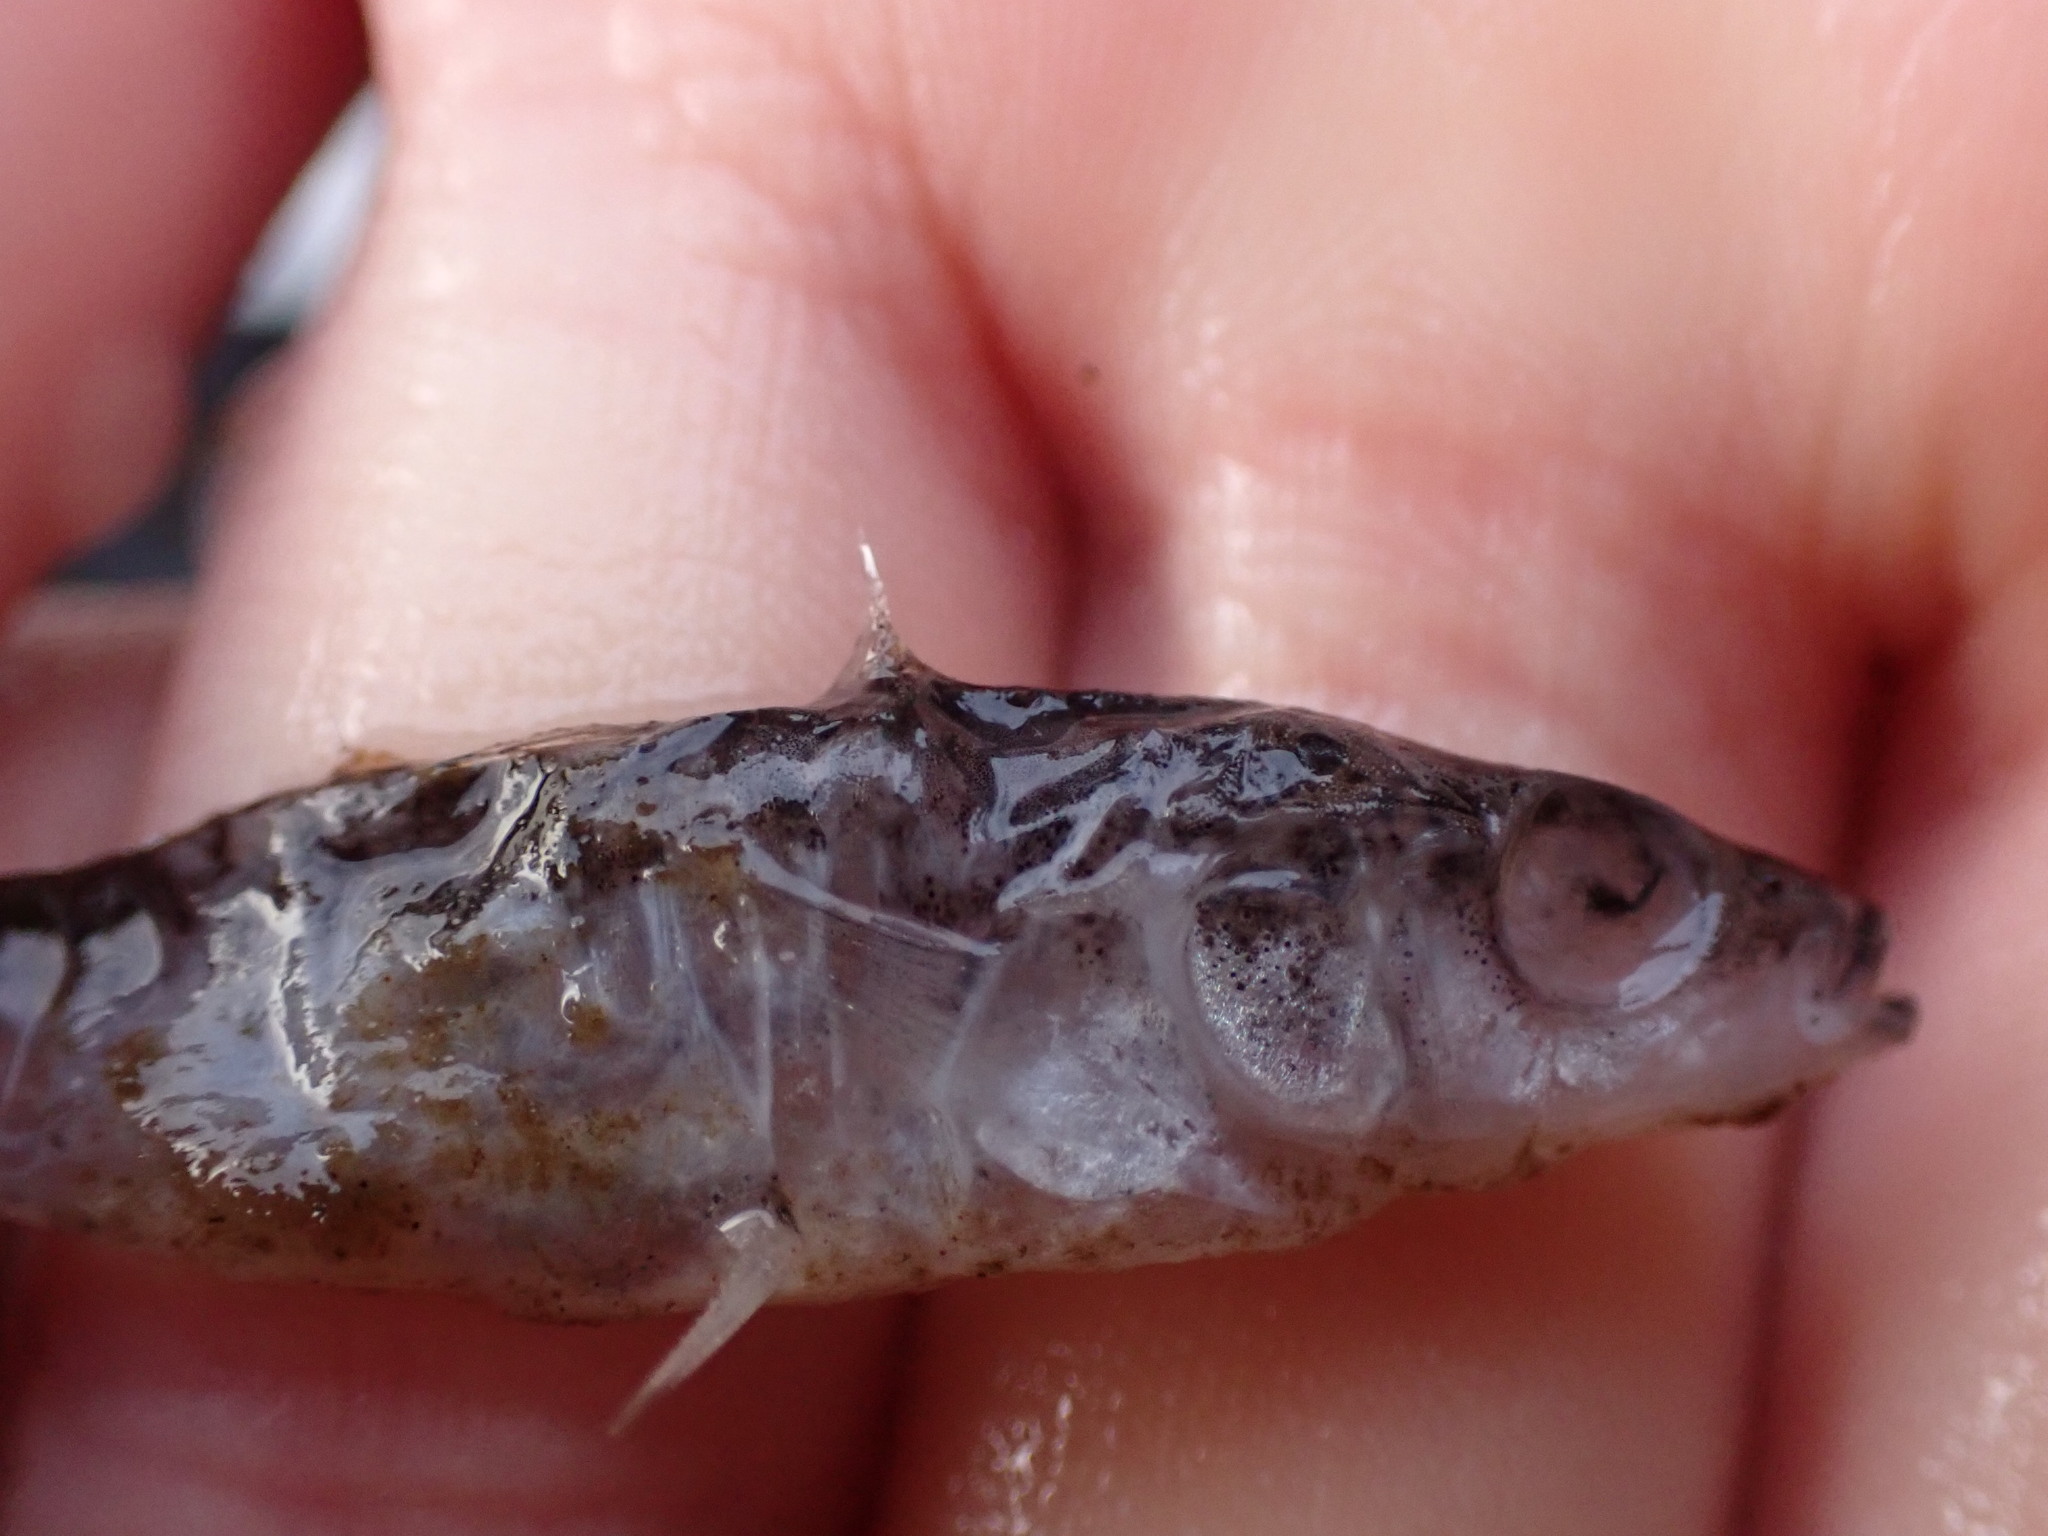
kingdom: Animalia
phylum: Chordata
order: Gasterosteiformes
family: Gasterosteidae
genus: Gasterosteus
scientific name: Gasterosteus aculeatus
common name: Three-spined stickleback
